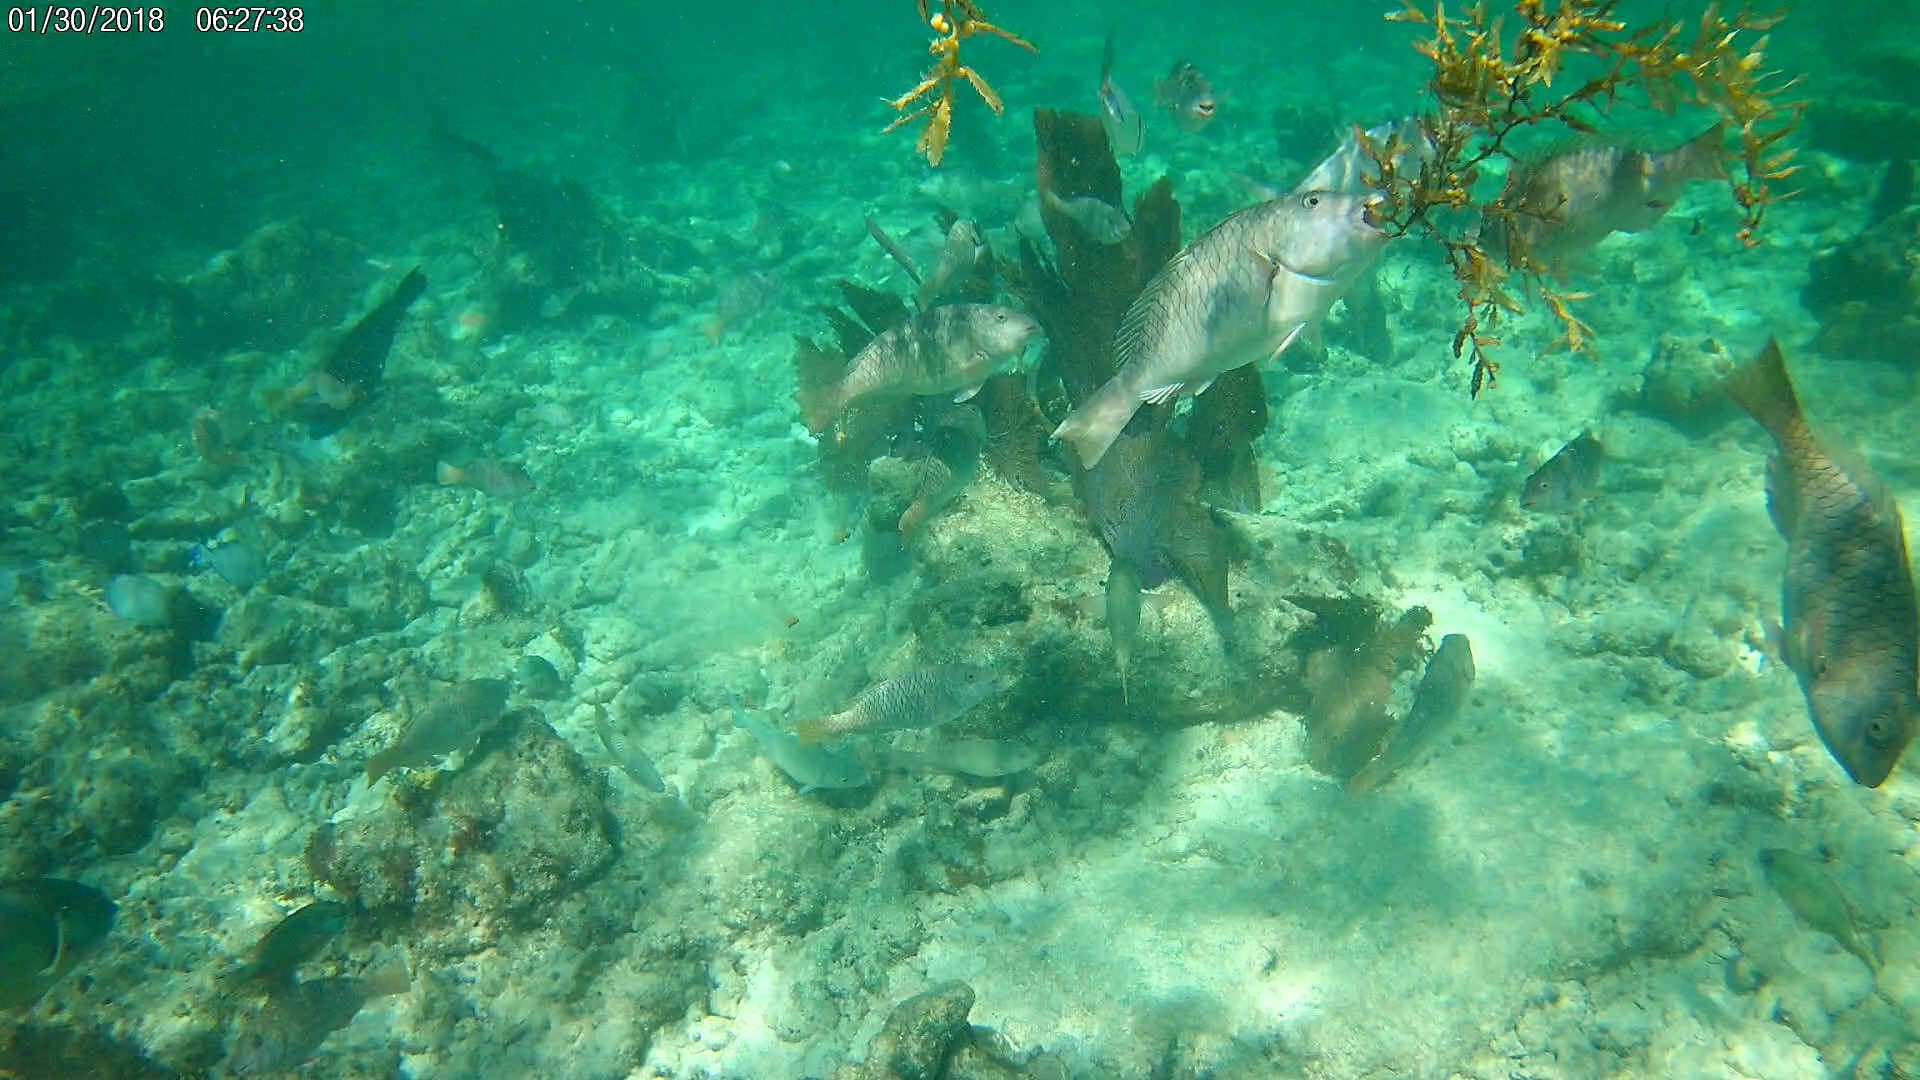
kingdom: Animalia
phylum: Chordata
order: Perciformes
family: Scaridae
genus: Sparisoma
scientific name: Sparisoma rubripinne
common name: Redfin parrotfish
